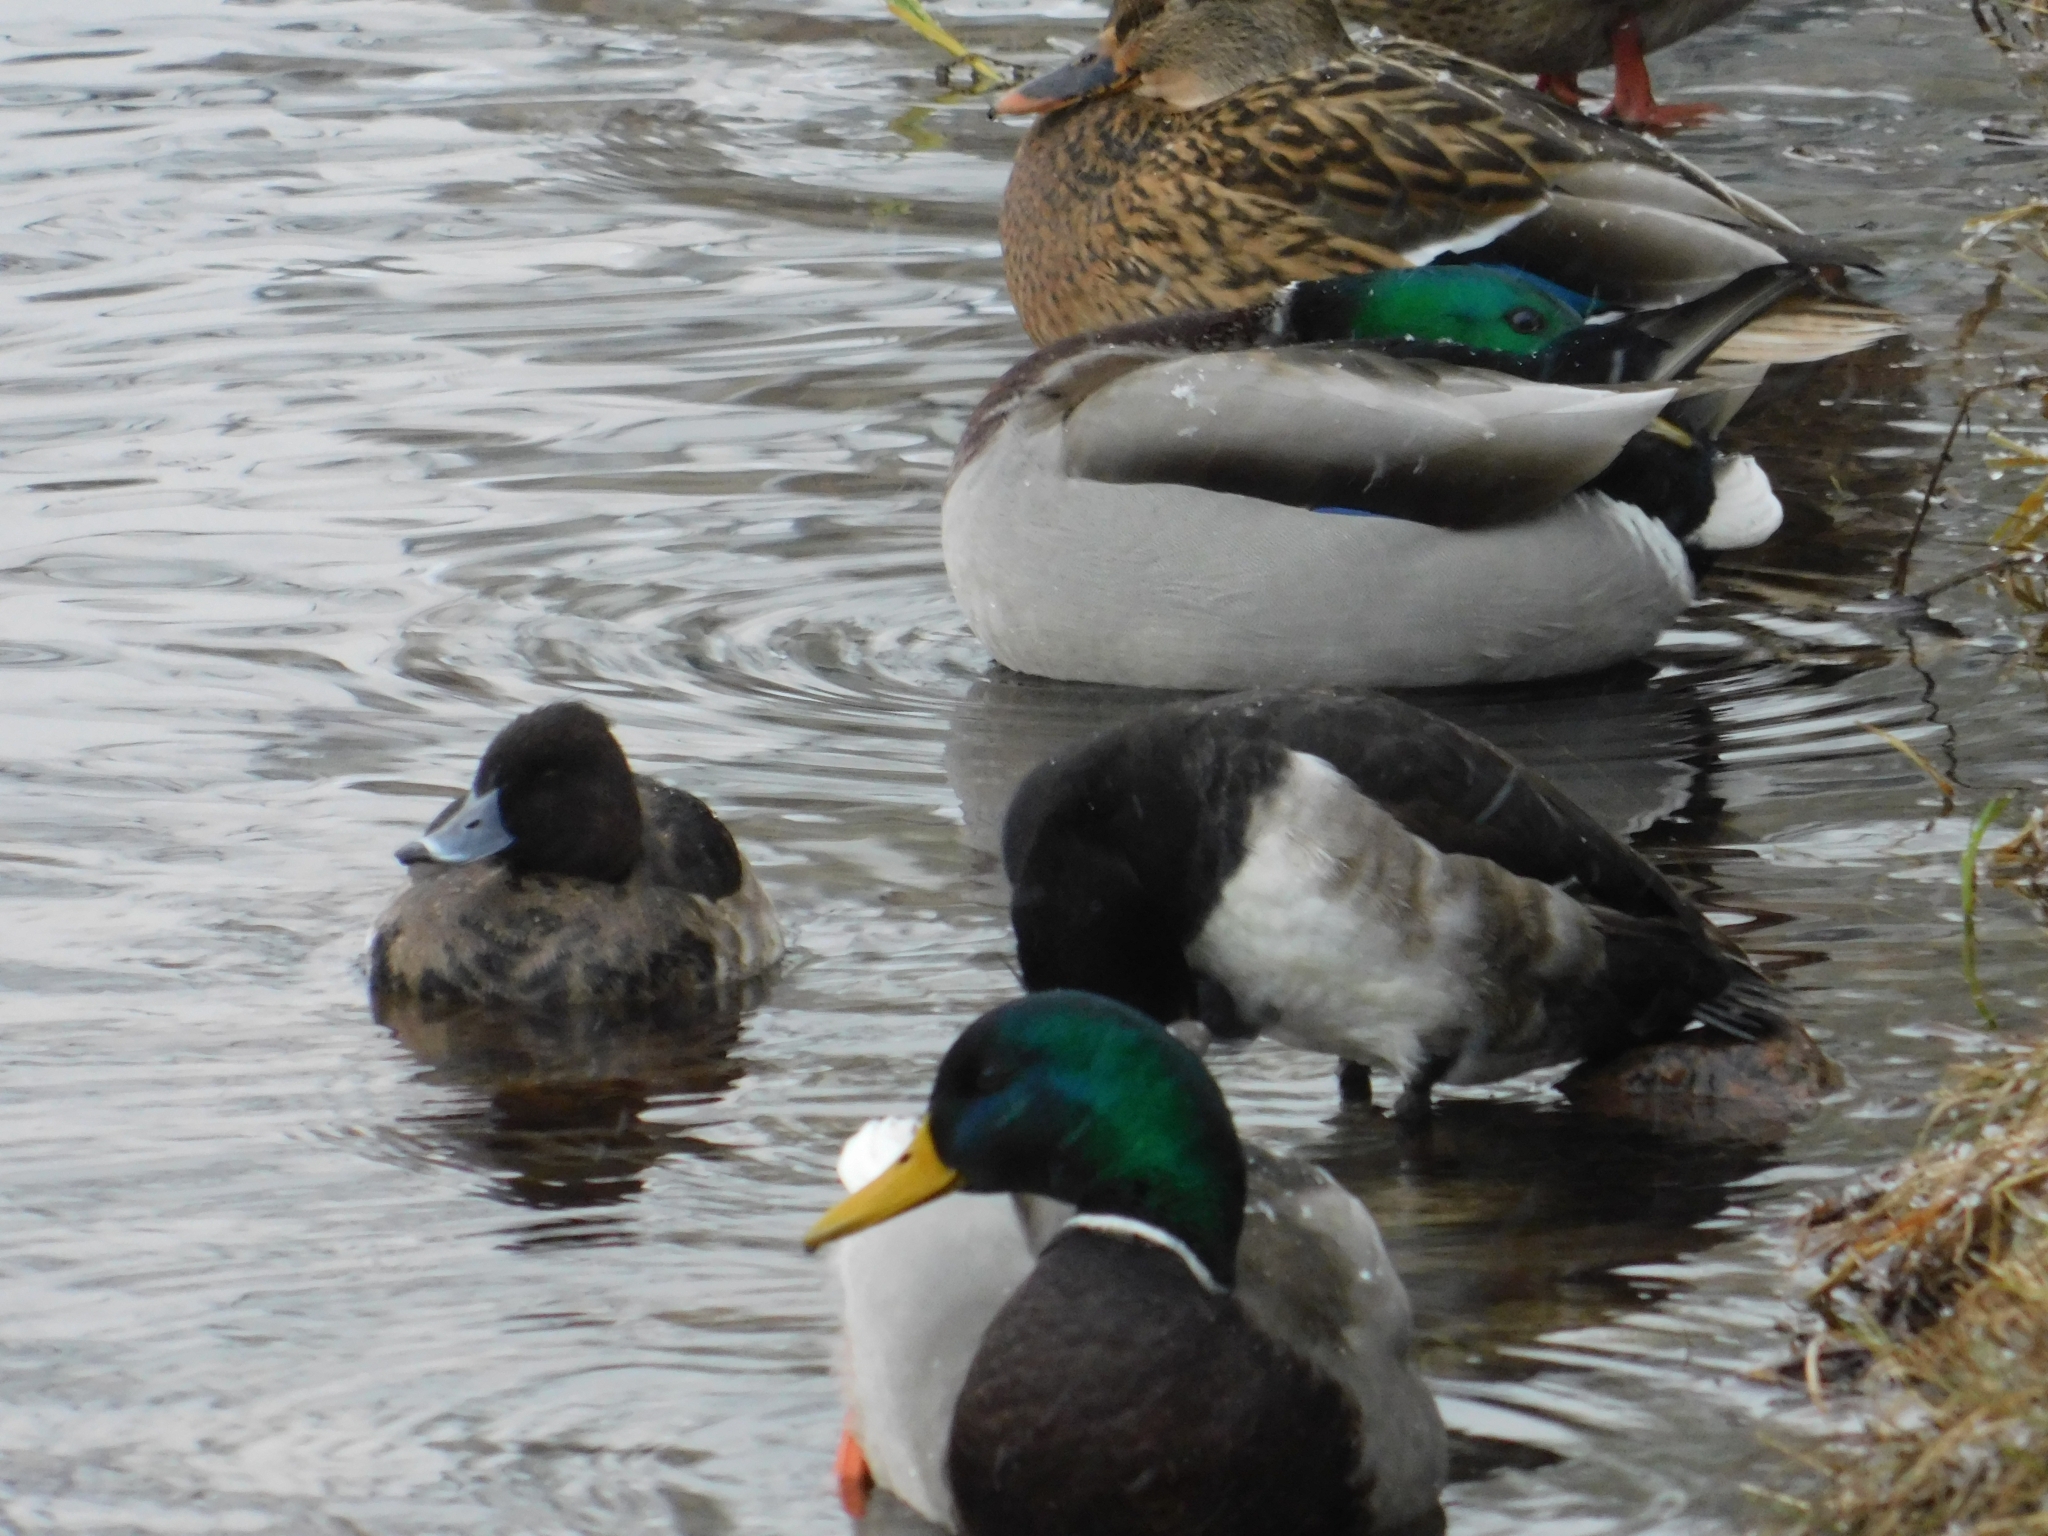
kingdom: Animalia
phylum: Chordata
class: Aves
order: Anseriformes
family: Anatidae
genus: Aythya
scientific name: Aythya fuligula
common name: Tufted duck
